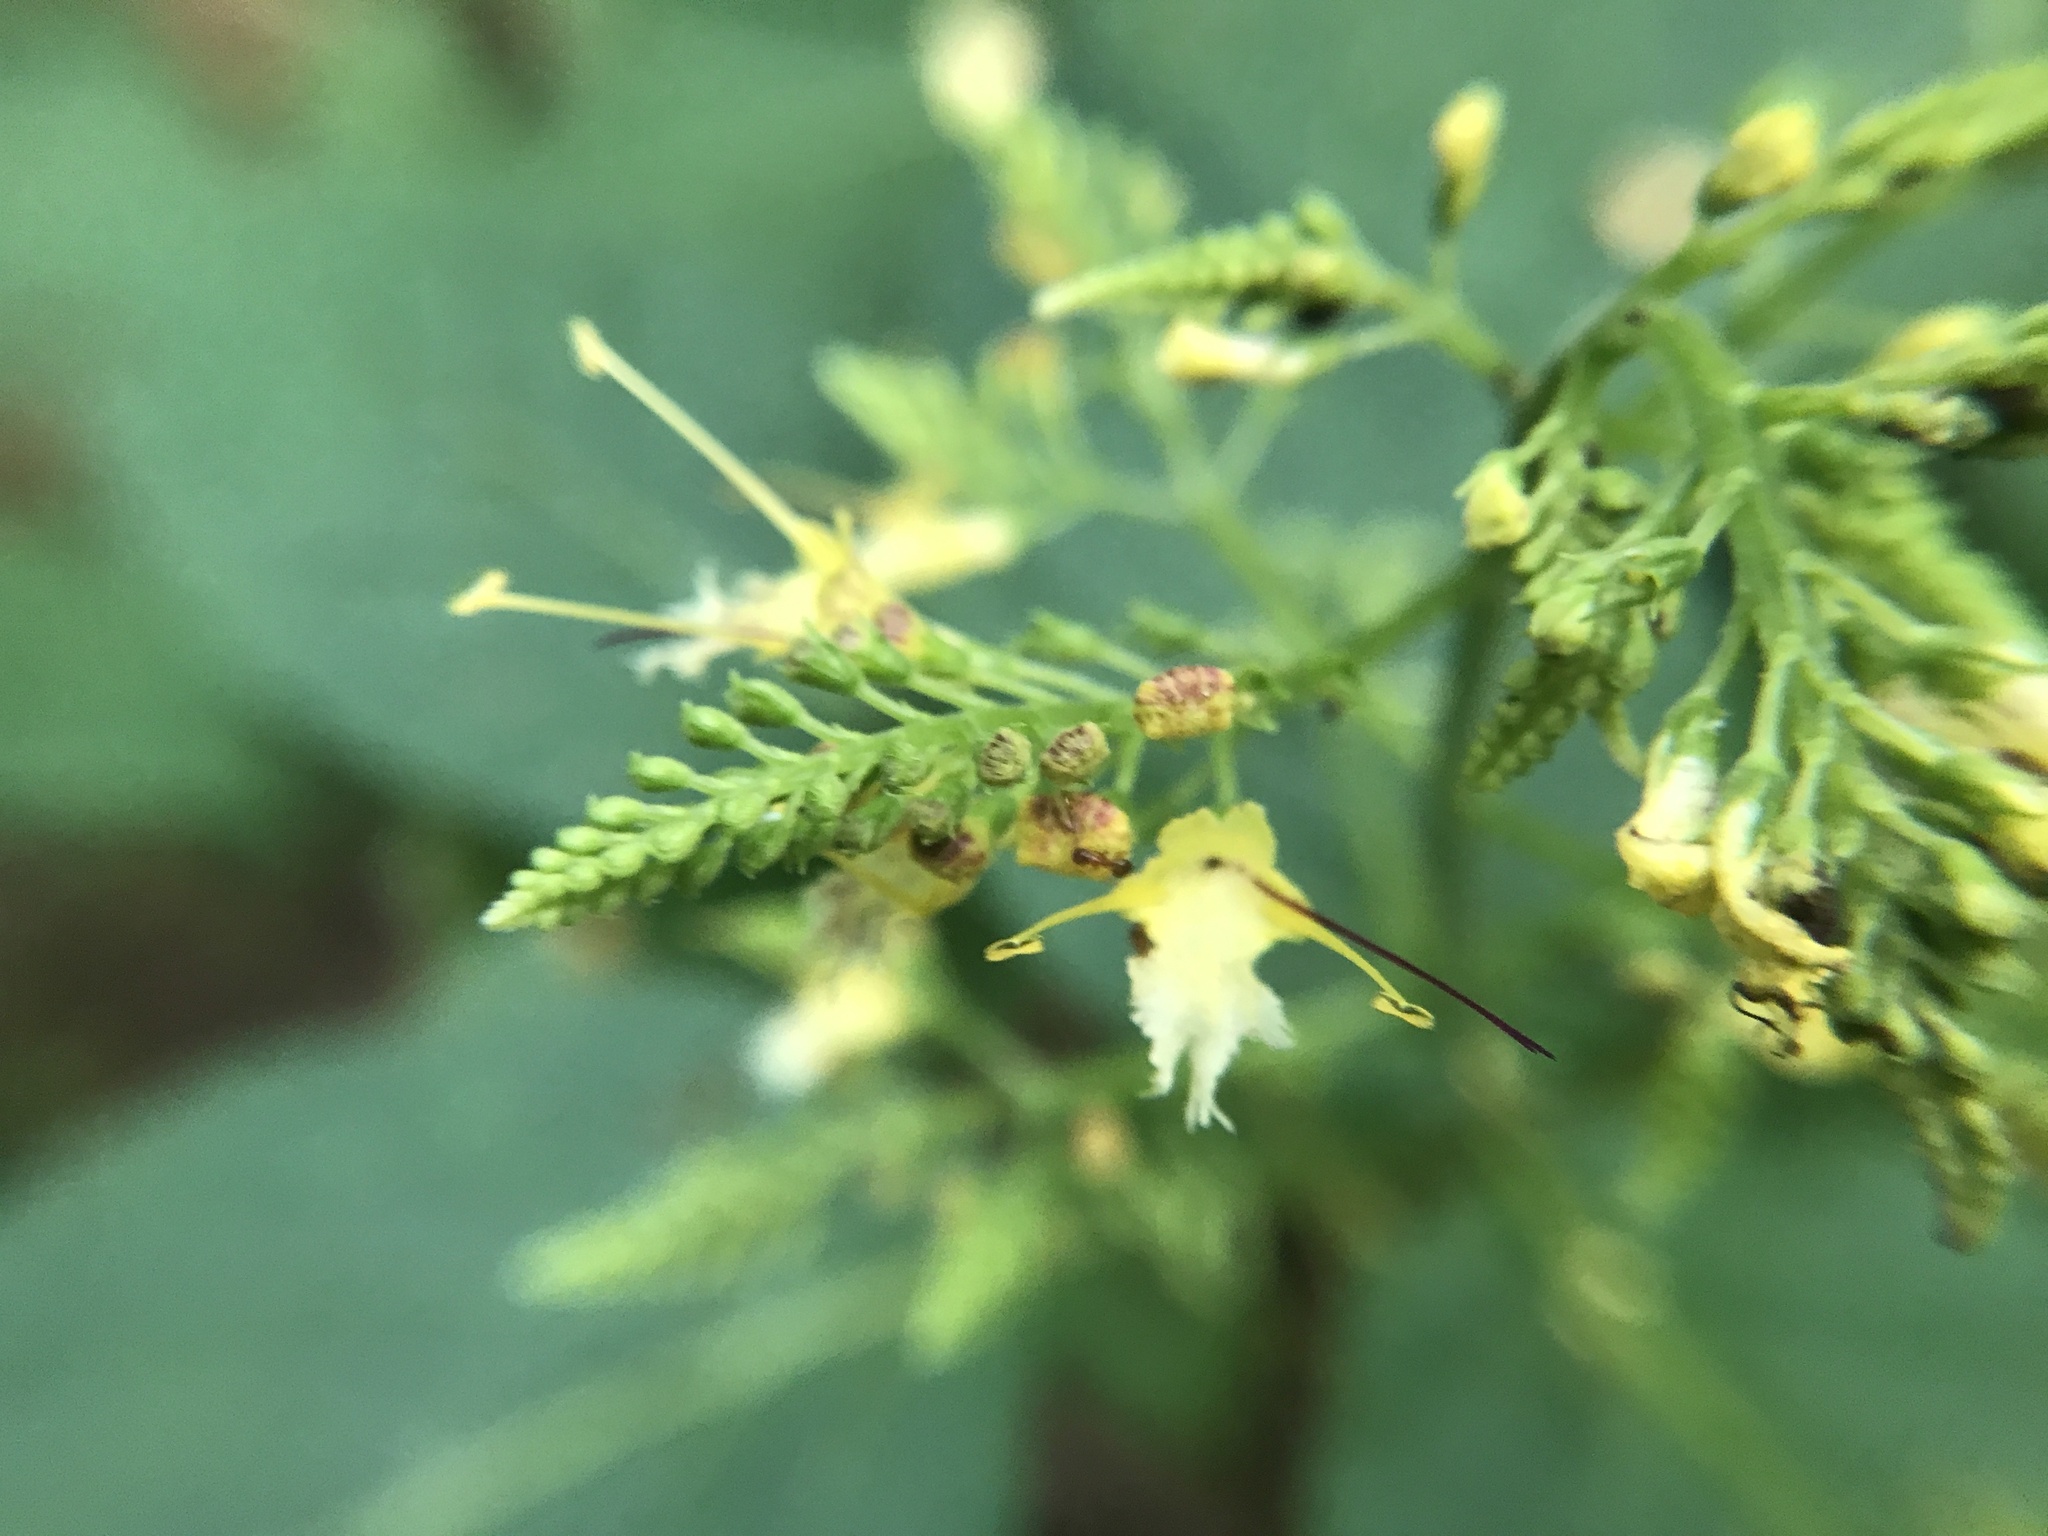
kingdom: Plantae
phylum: Tracheophyta
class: Magnoliopsida
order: Lamiales
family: Lamiaceae
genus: Collinsonia
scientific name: Collinsonia canadensis
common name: Northern horsebalm
